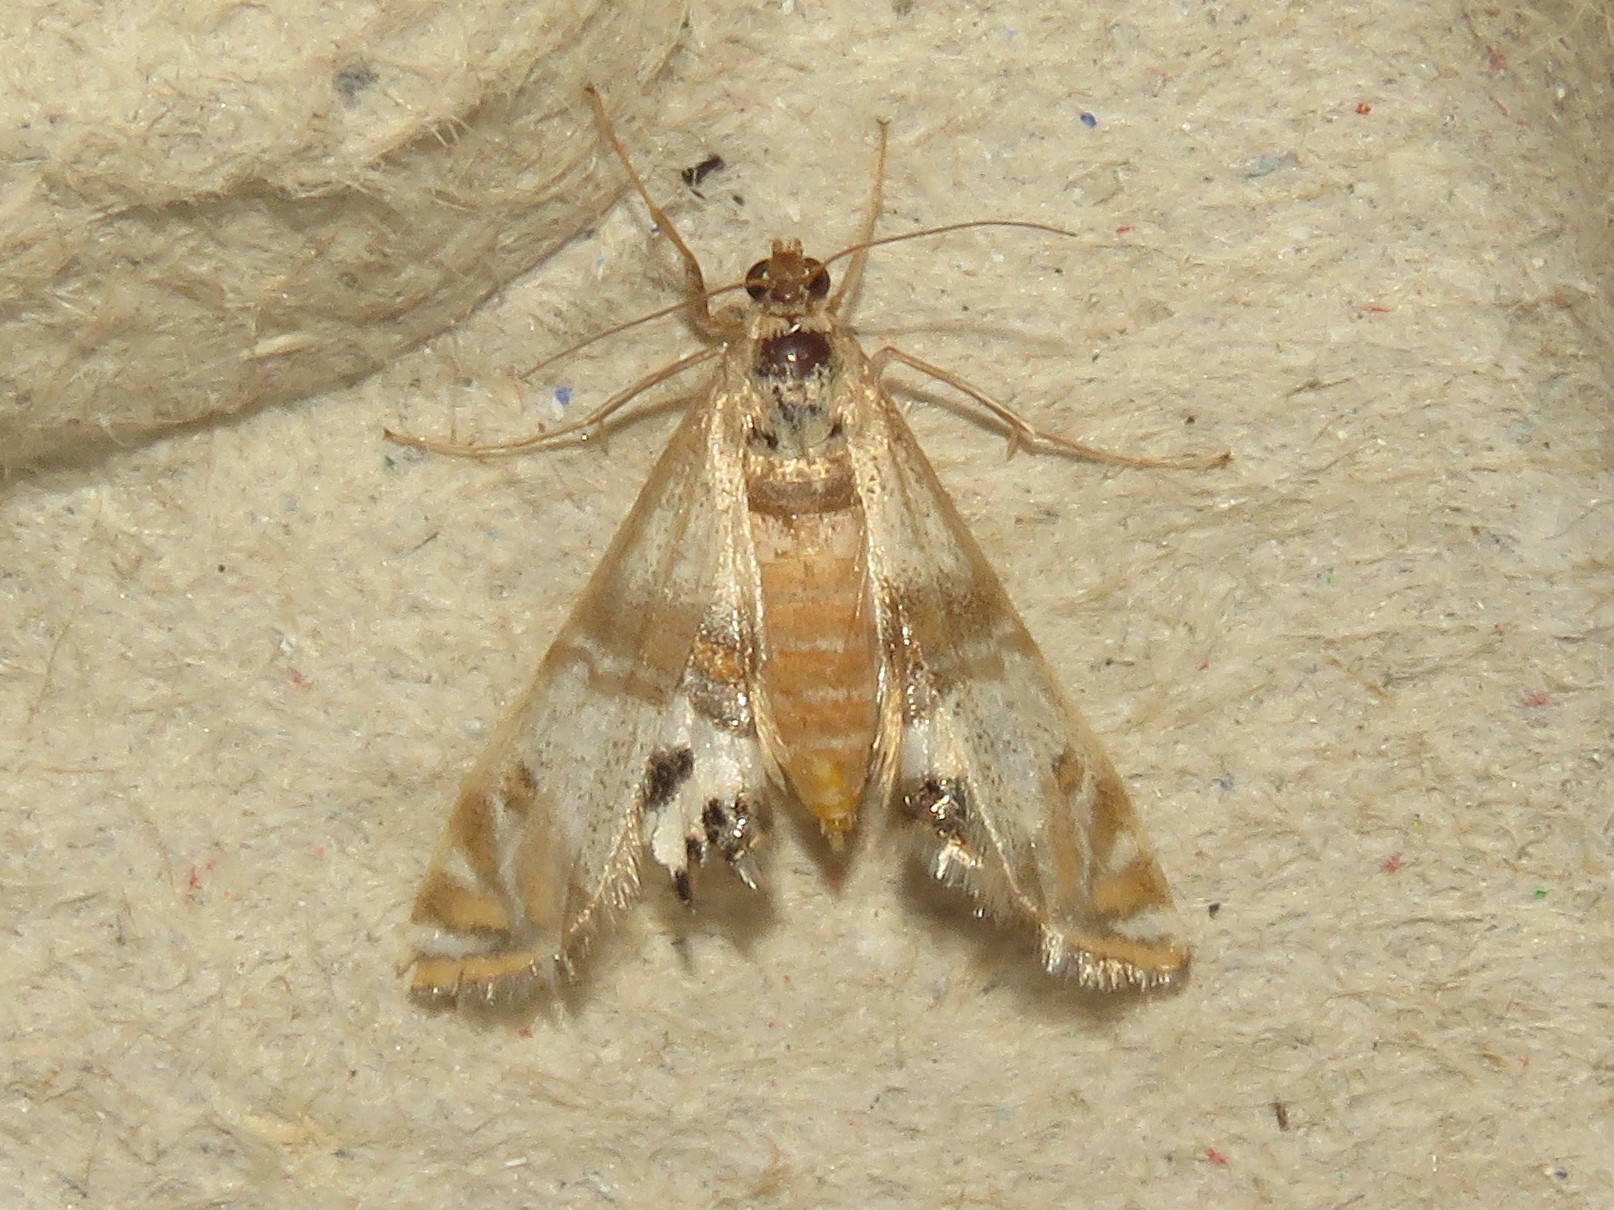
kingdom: Animalia
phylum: Arthropoda
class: Insecta
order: Lepidoptera
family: Crambidae
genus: Petrophila
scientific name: Petrophila bifascialis
